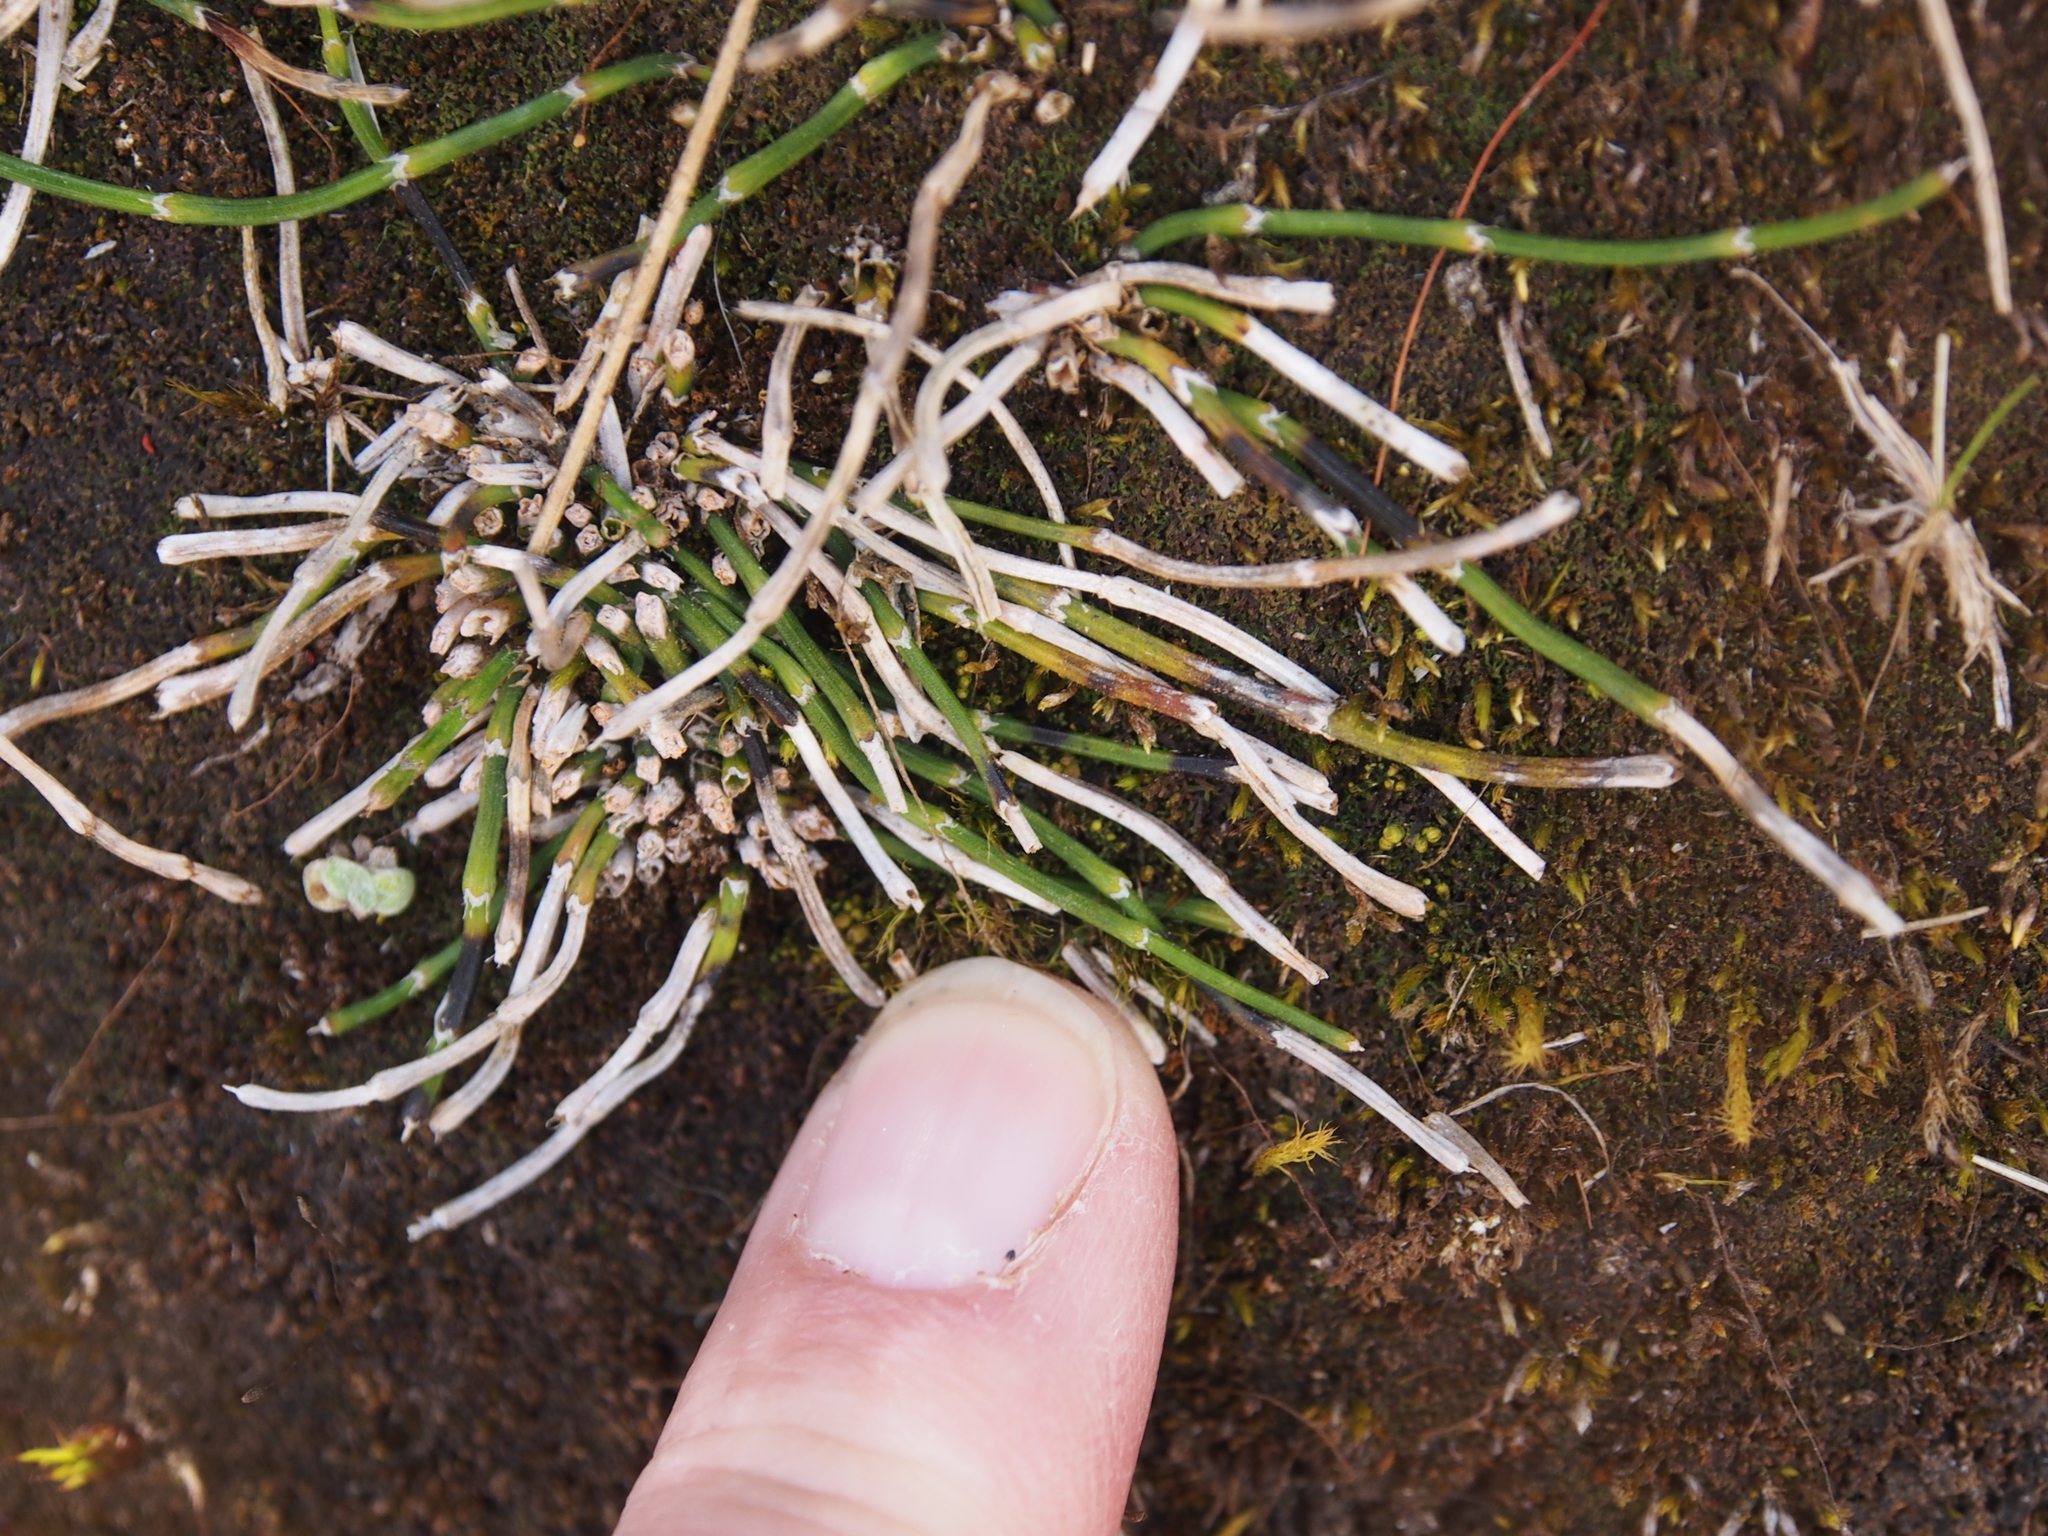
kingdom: Plantae
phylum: Tracheophyta
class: Polypodiopsida
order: Equisetales
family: Equisetaceae
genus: Equisetum
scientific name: Equisetum bogotense
